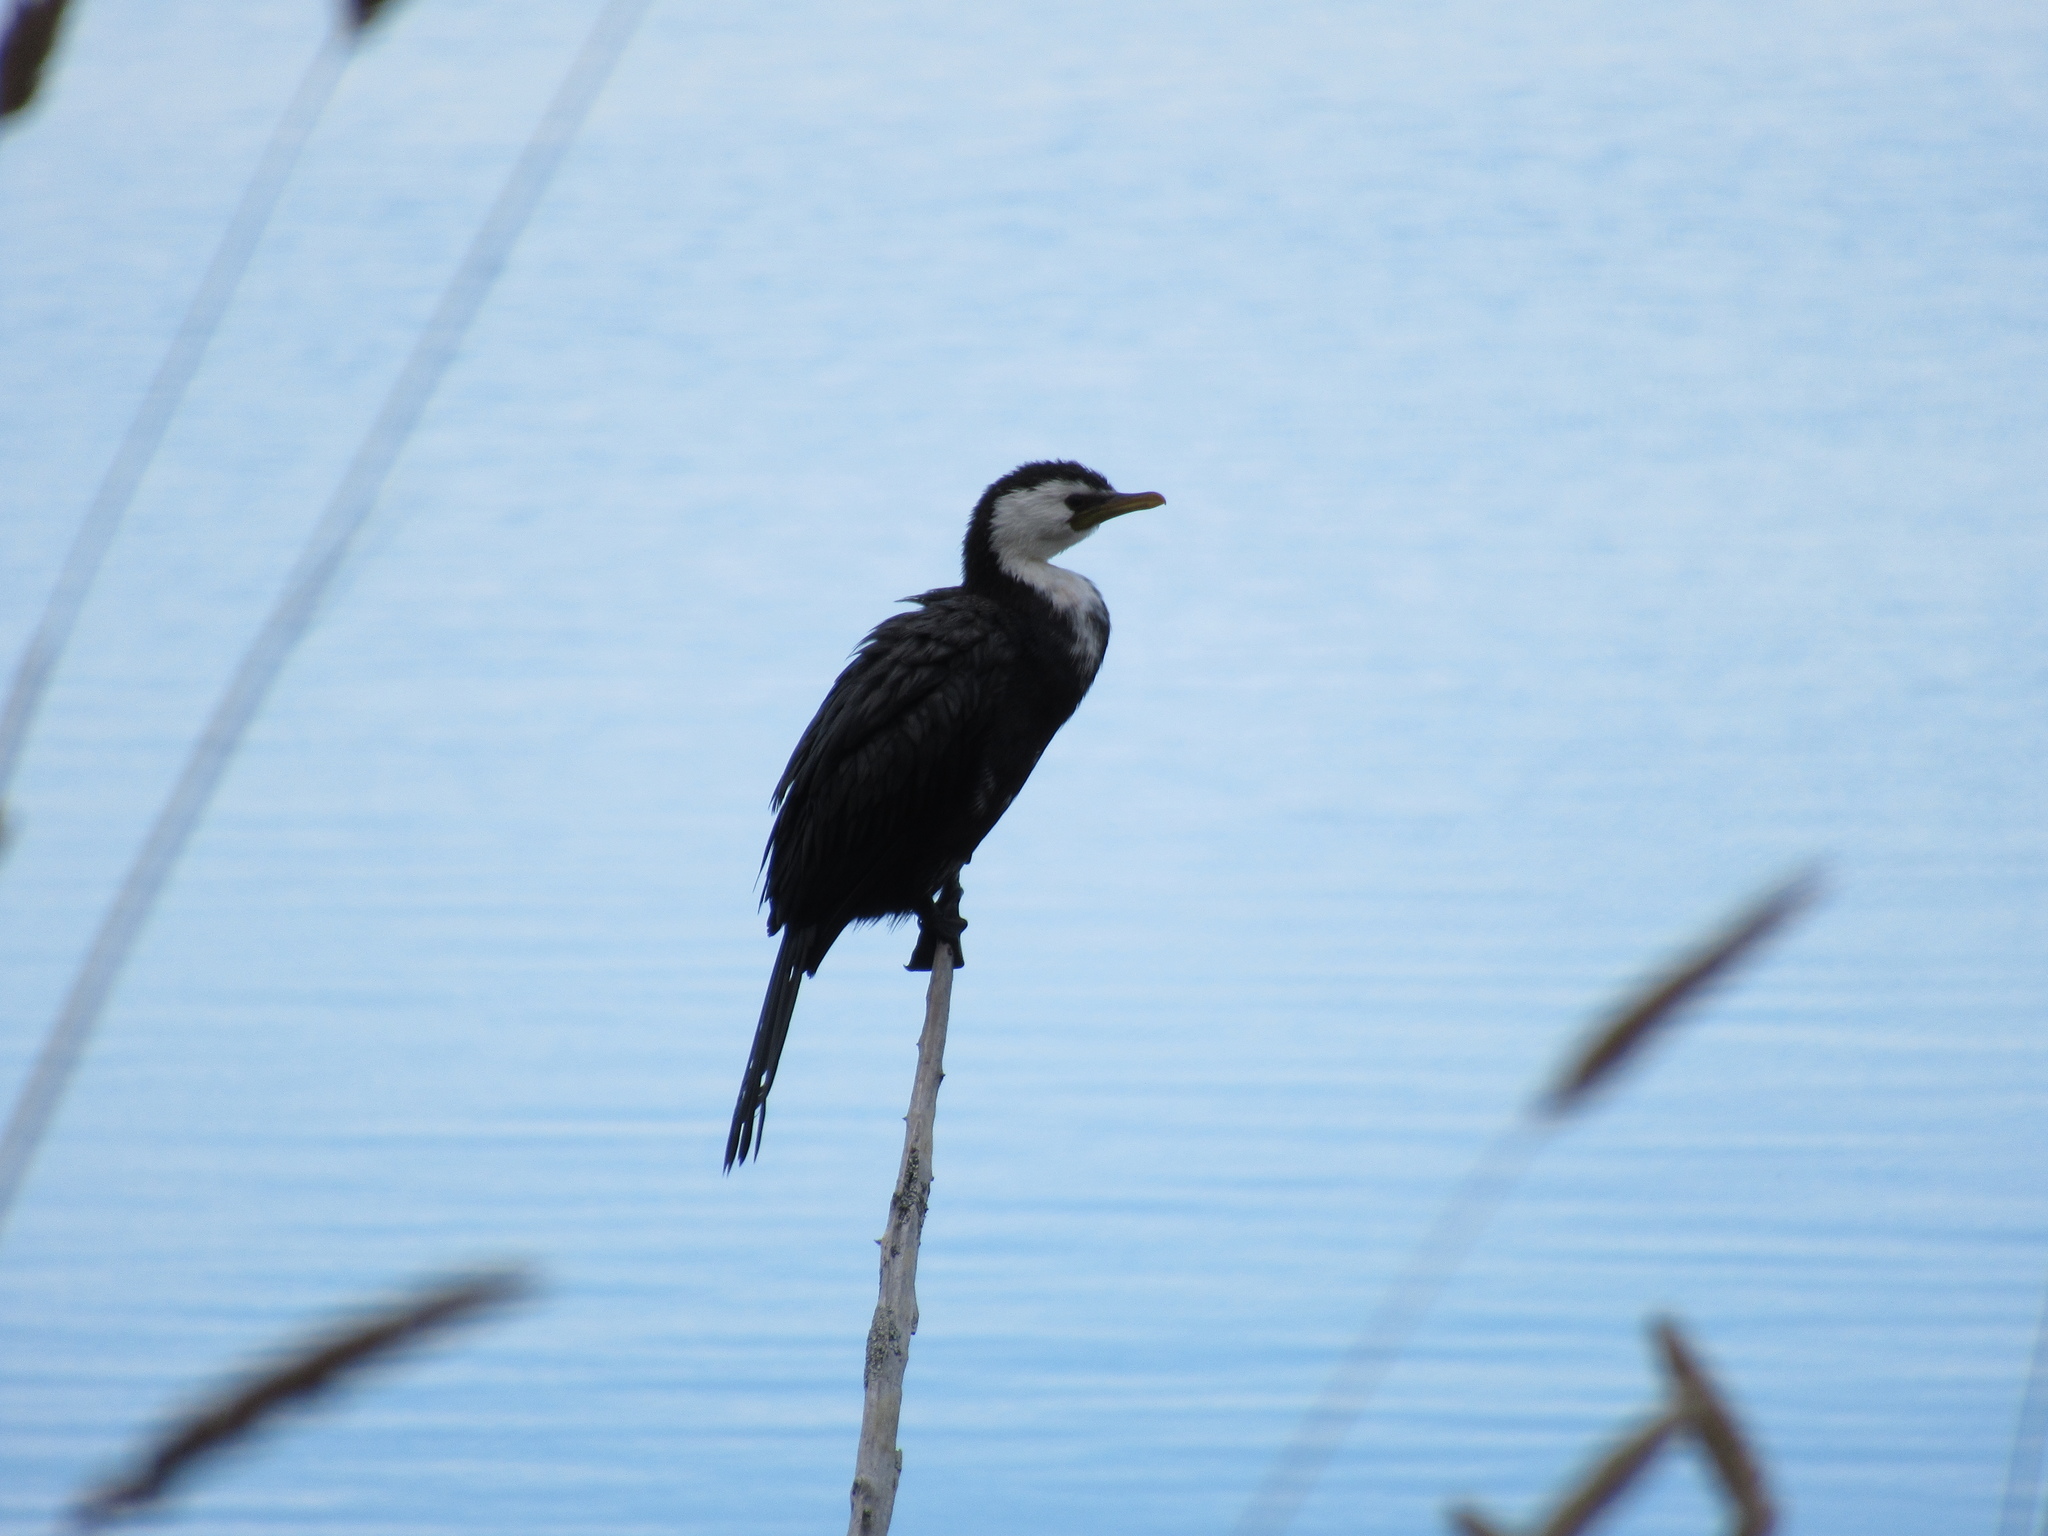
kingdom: Animalia
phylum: Chordata
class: Aves
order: Suliformes
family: Phalacrocoracidae
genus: Microcarbo
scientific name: Microcarbo melanoleucos
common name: Little pied cormorant
